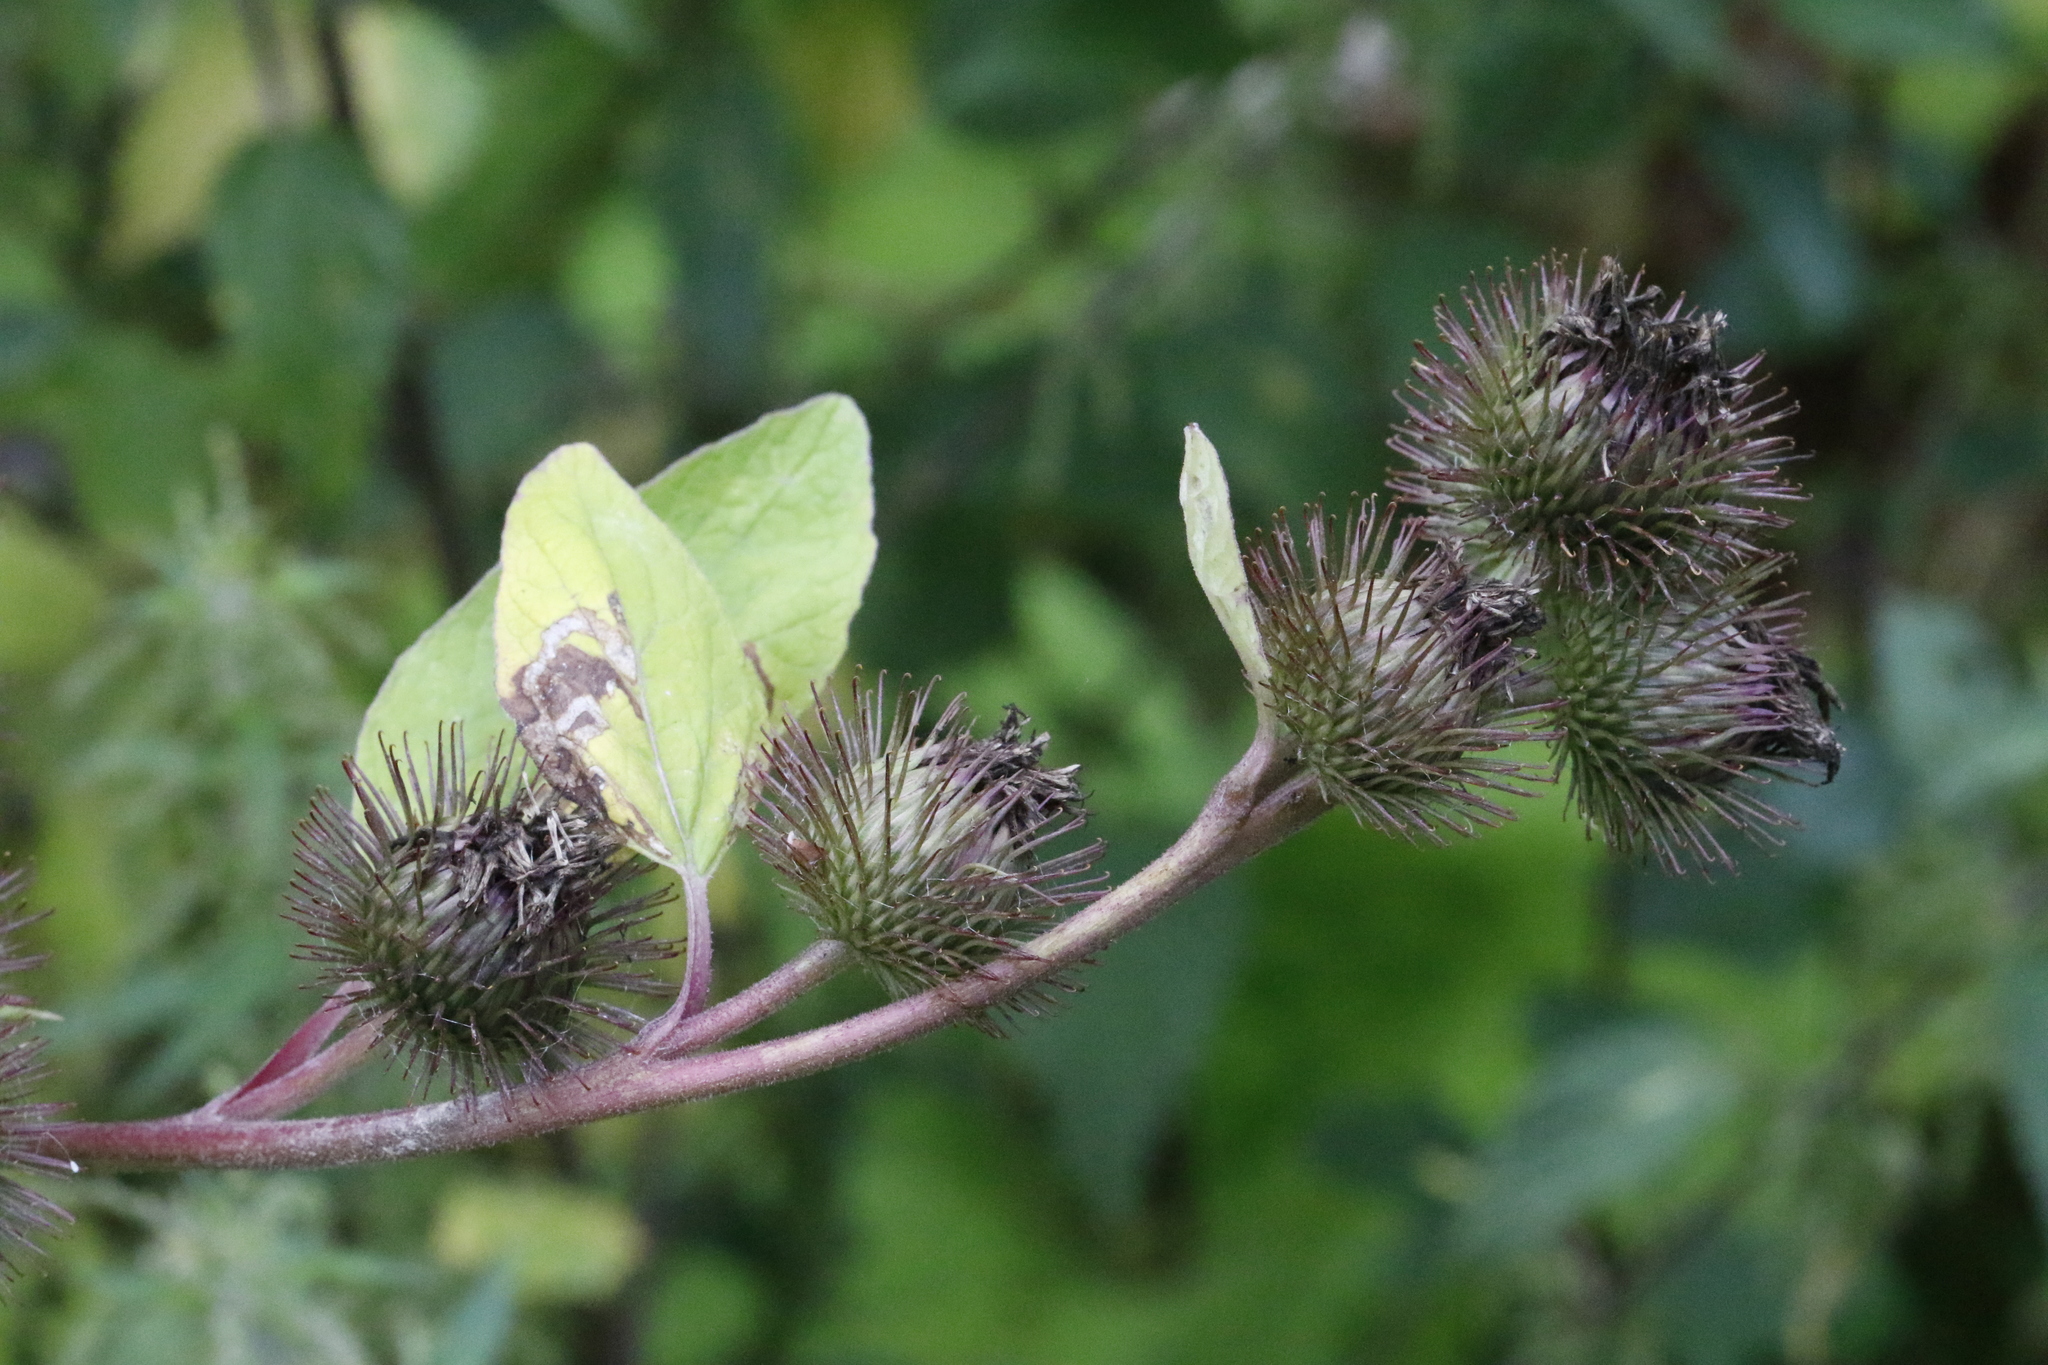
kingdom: Plantae
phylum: Tracheophyta
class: Magnoliopsida
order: Asterales
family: Asteraceae
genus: Arctium
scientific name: Arctium minus
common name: Lesser burdock
